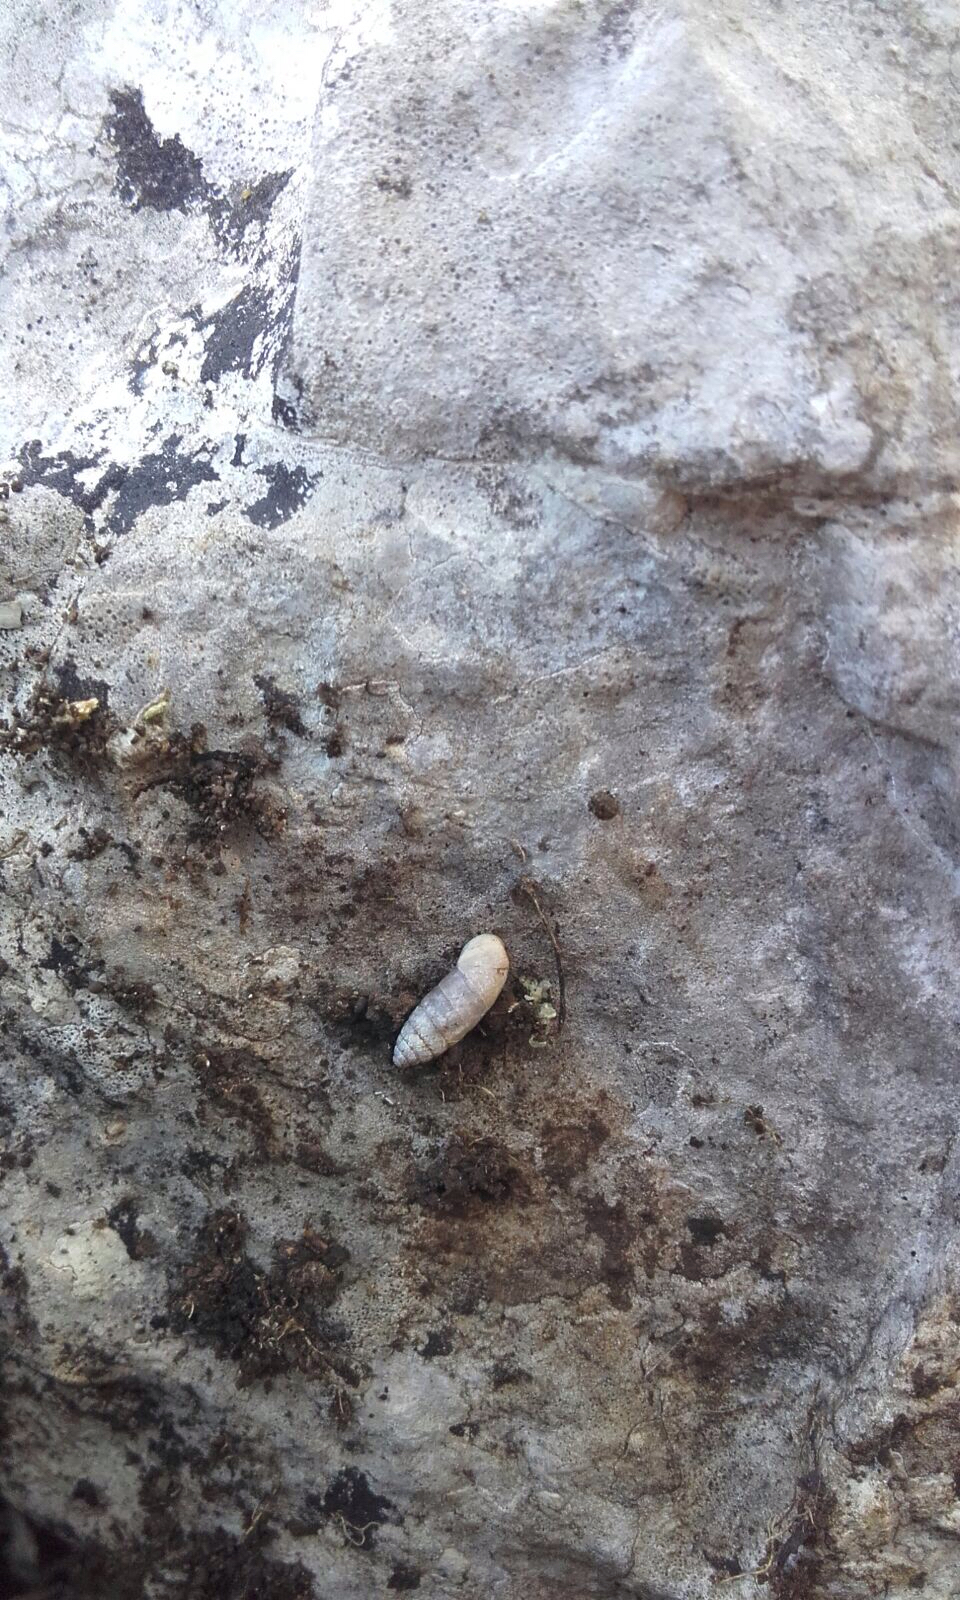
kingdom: Animalia
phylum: Mollusca
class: Gastropoda
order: Stylommatophora
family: Enidae
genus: Jaminia
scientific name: Jaminia quadridens
